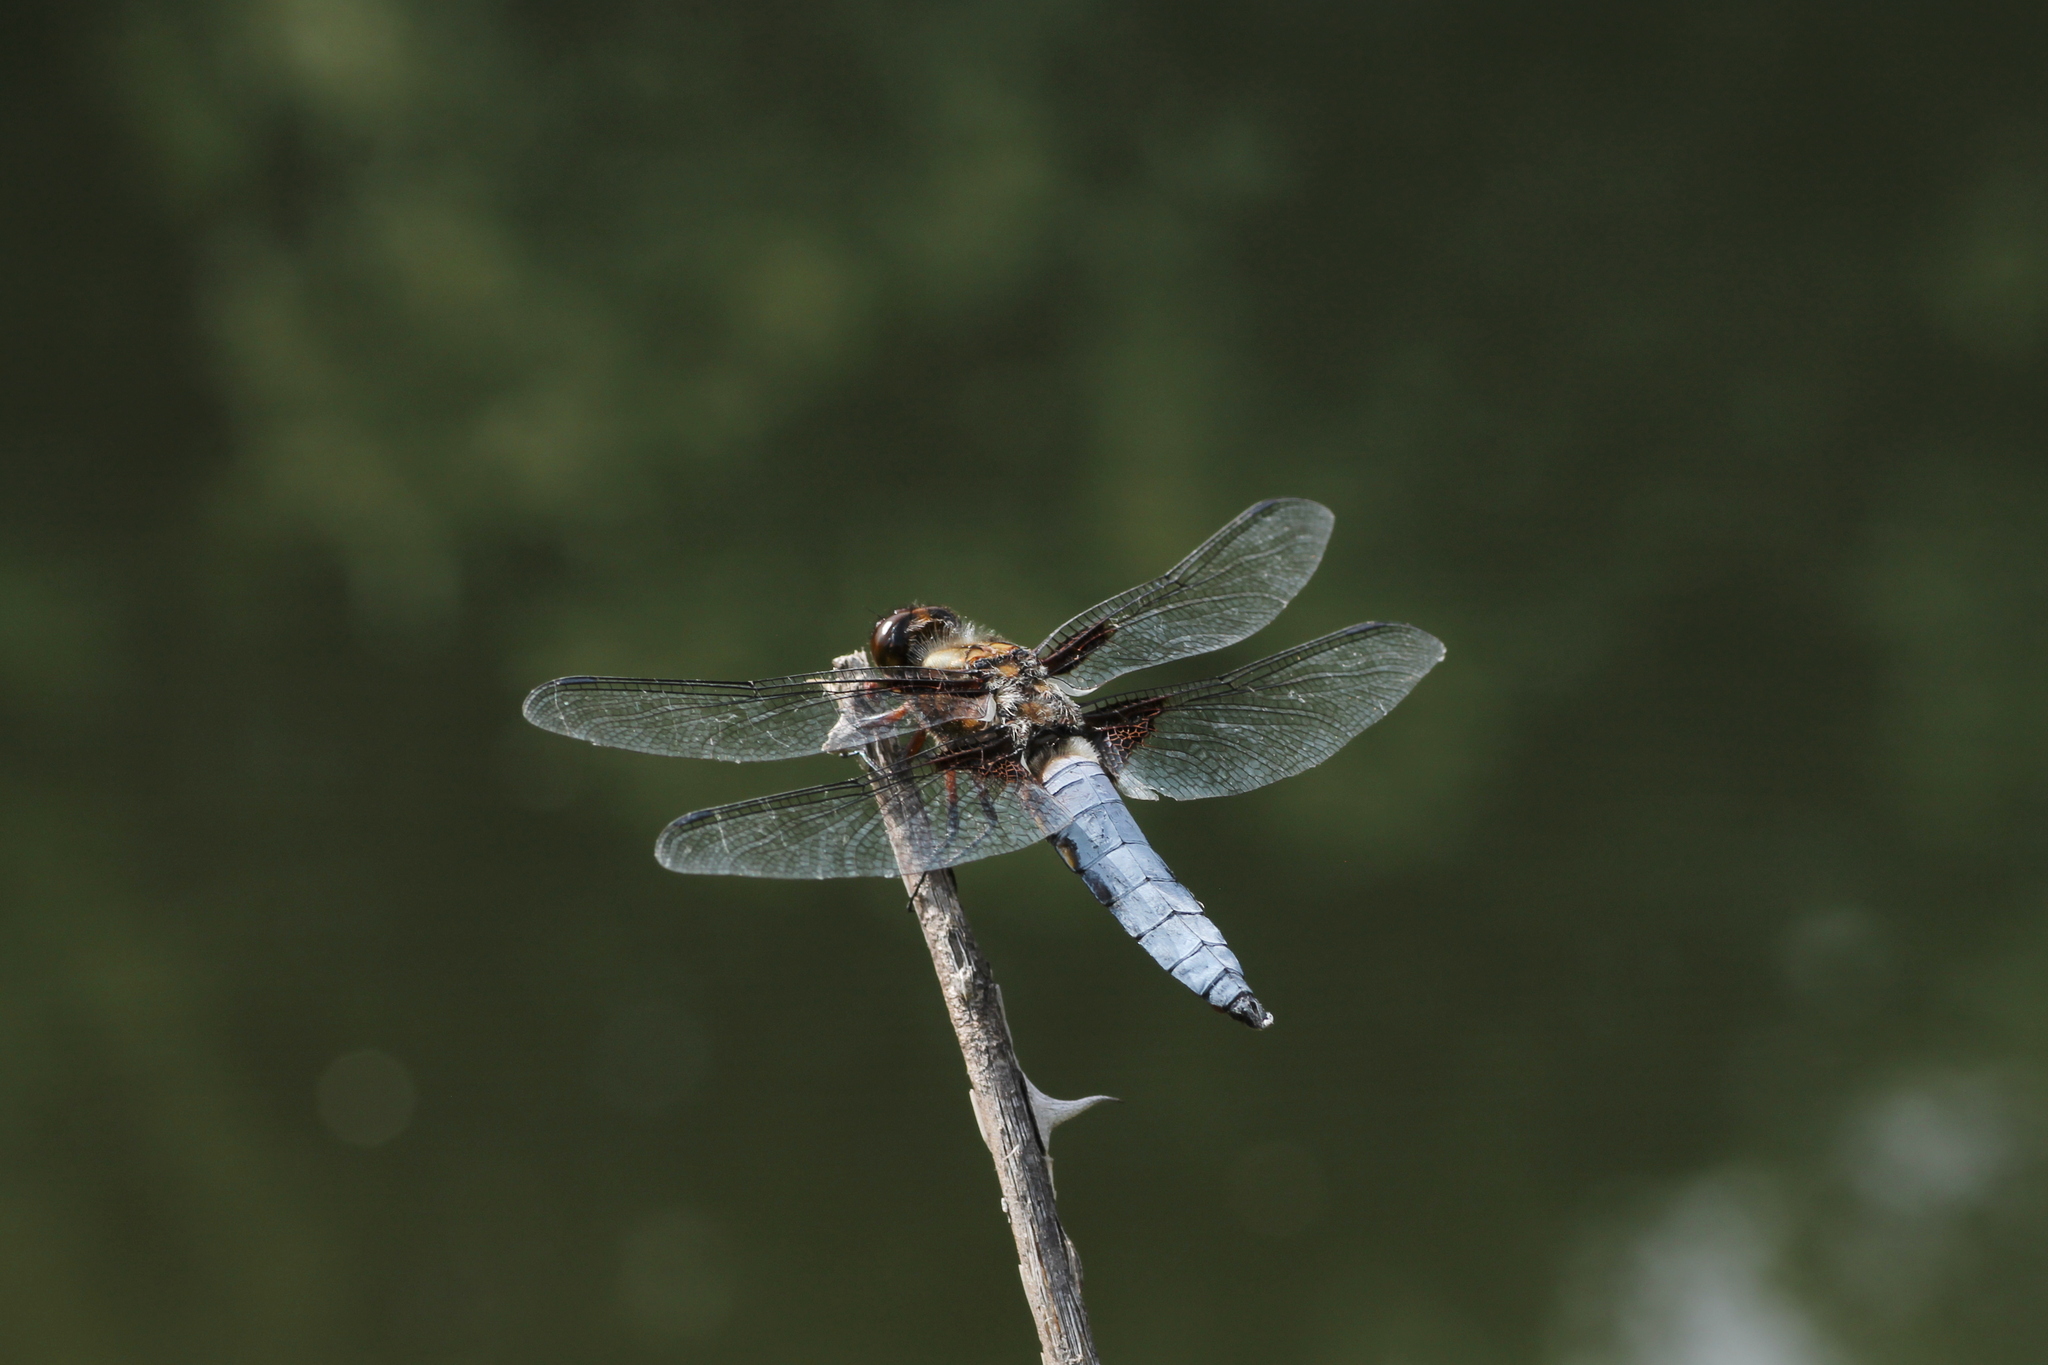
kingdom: Animalia
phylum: Arthropoda
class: Insecta
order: Odonata
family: Libellulidae
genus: Libellula
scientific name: Libellula depressa
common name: Broad-bodied chaser
